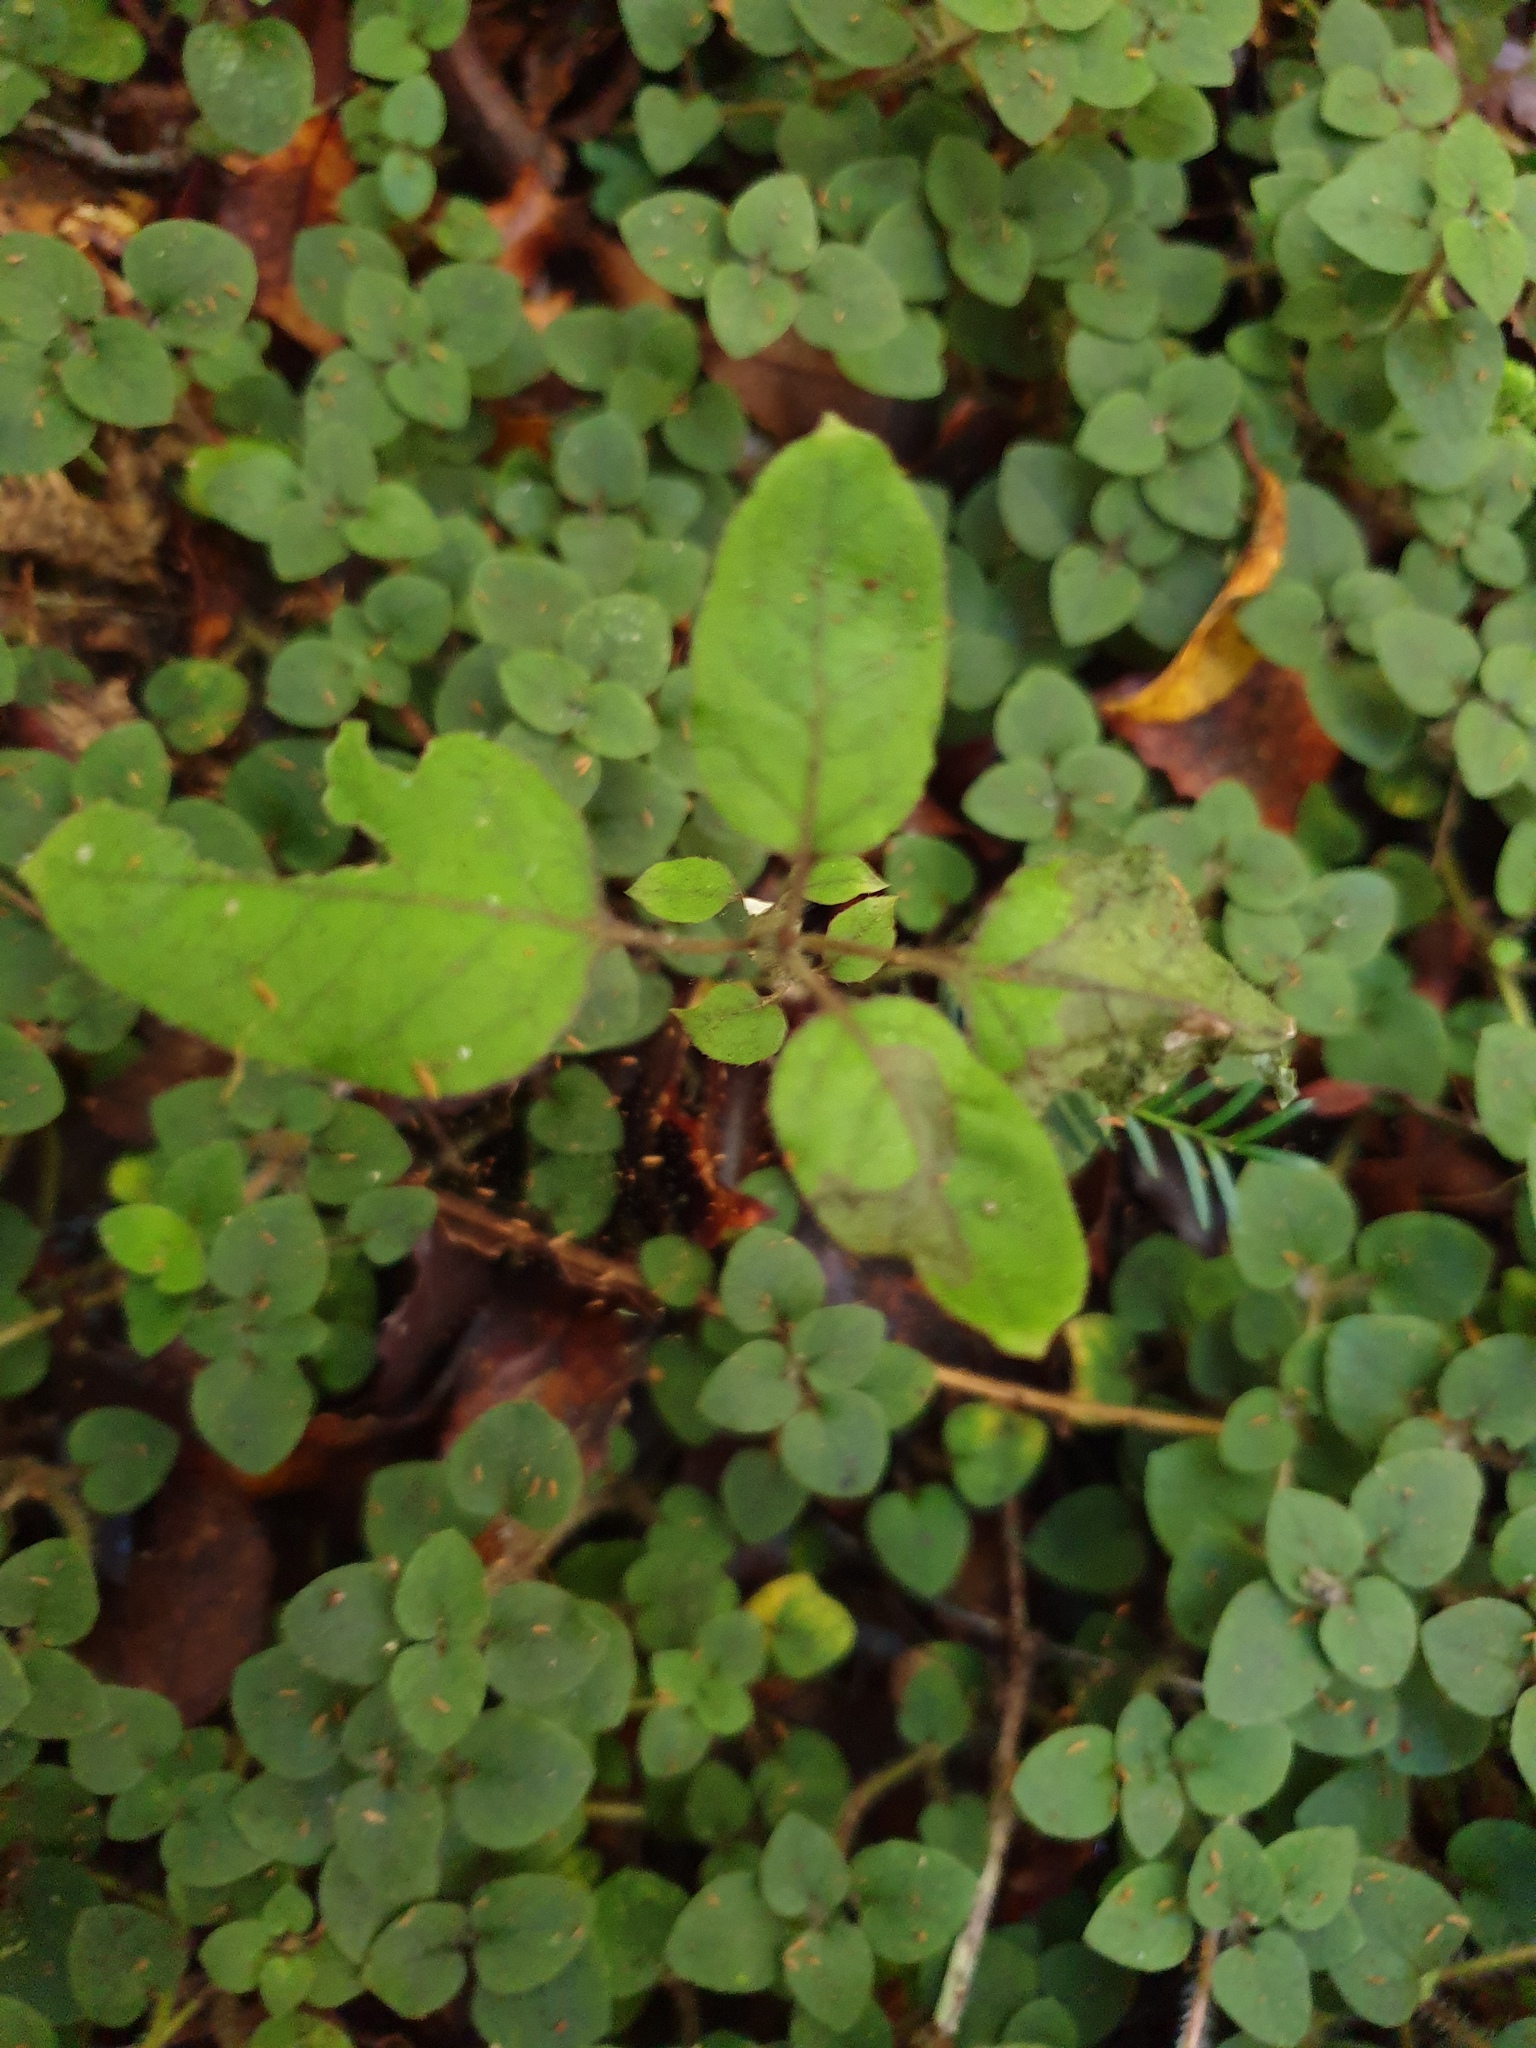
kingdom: Plantae
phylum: Tracheophyta
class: Magnoliopsida
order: Gentianales
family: Rubiaceae
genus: Coprosma
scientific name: Coprosma rotundifolia
